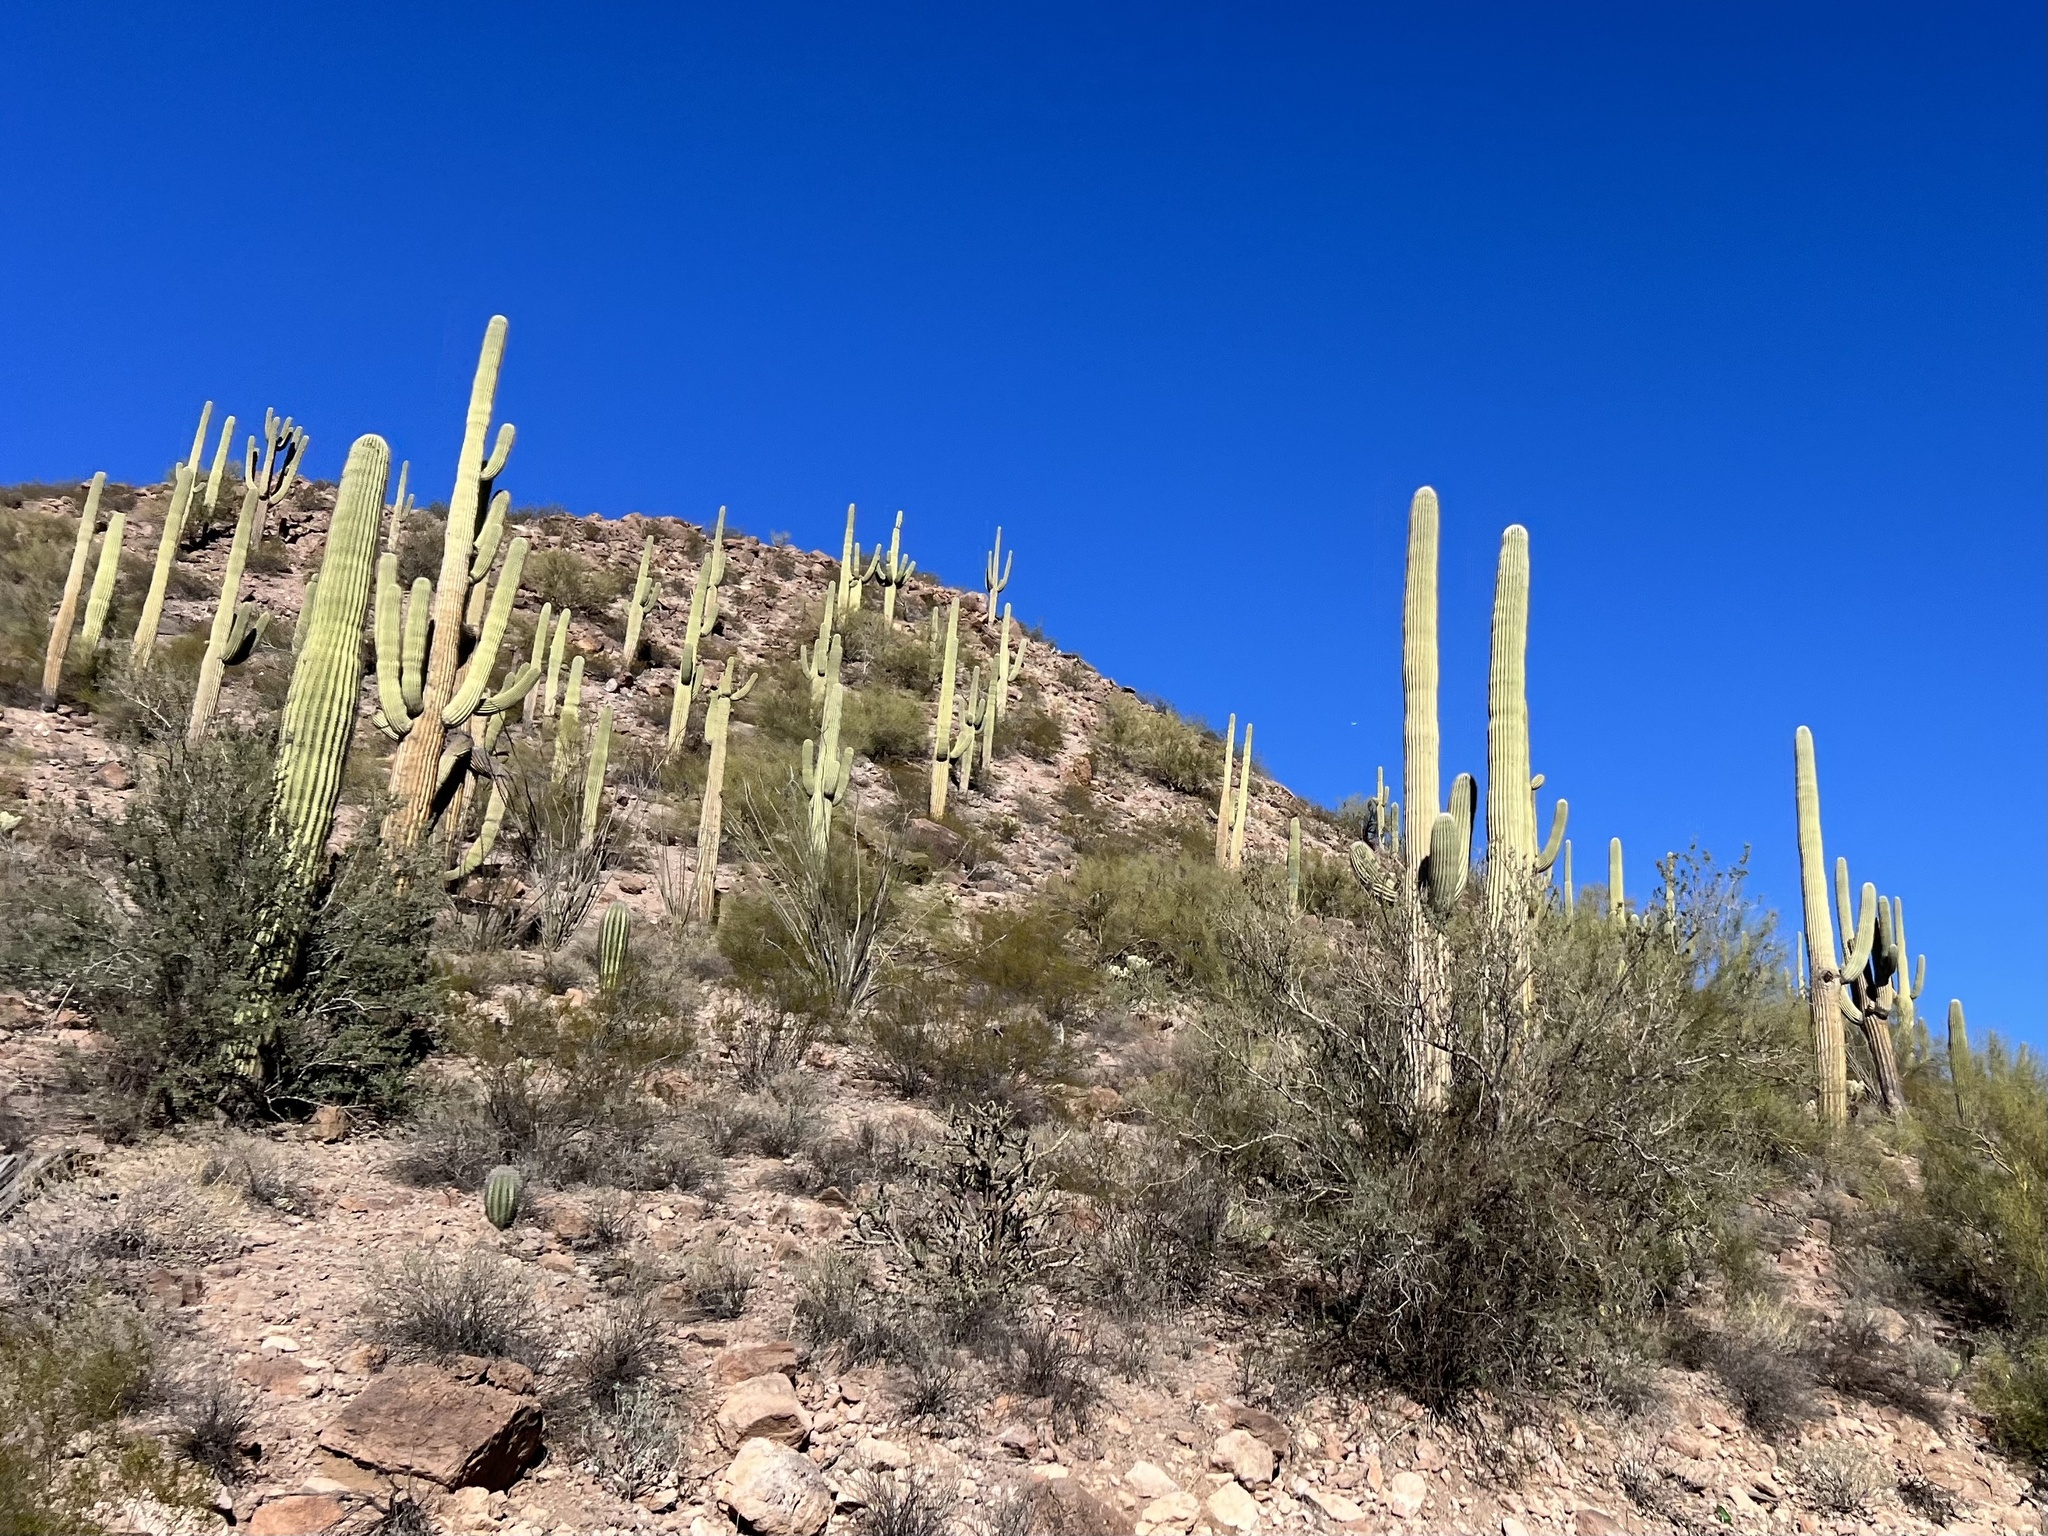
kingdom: Plantae
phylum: Tracheophyta
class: Magnoliopsida
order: Caryophyllales
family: Cactaceae
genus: Carnegiea
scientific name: Carnegiea gigantea
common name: Saguaro
